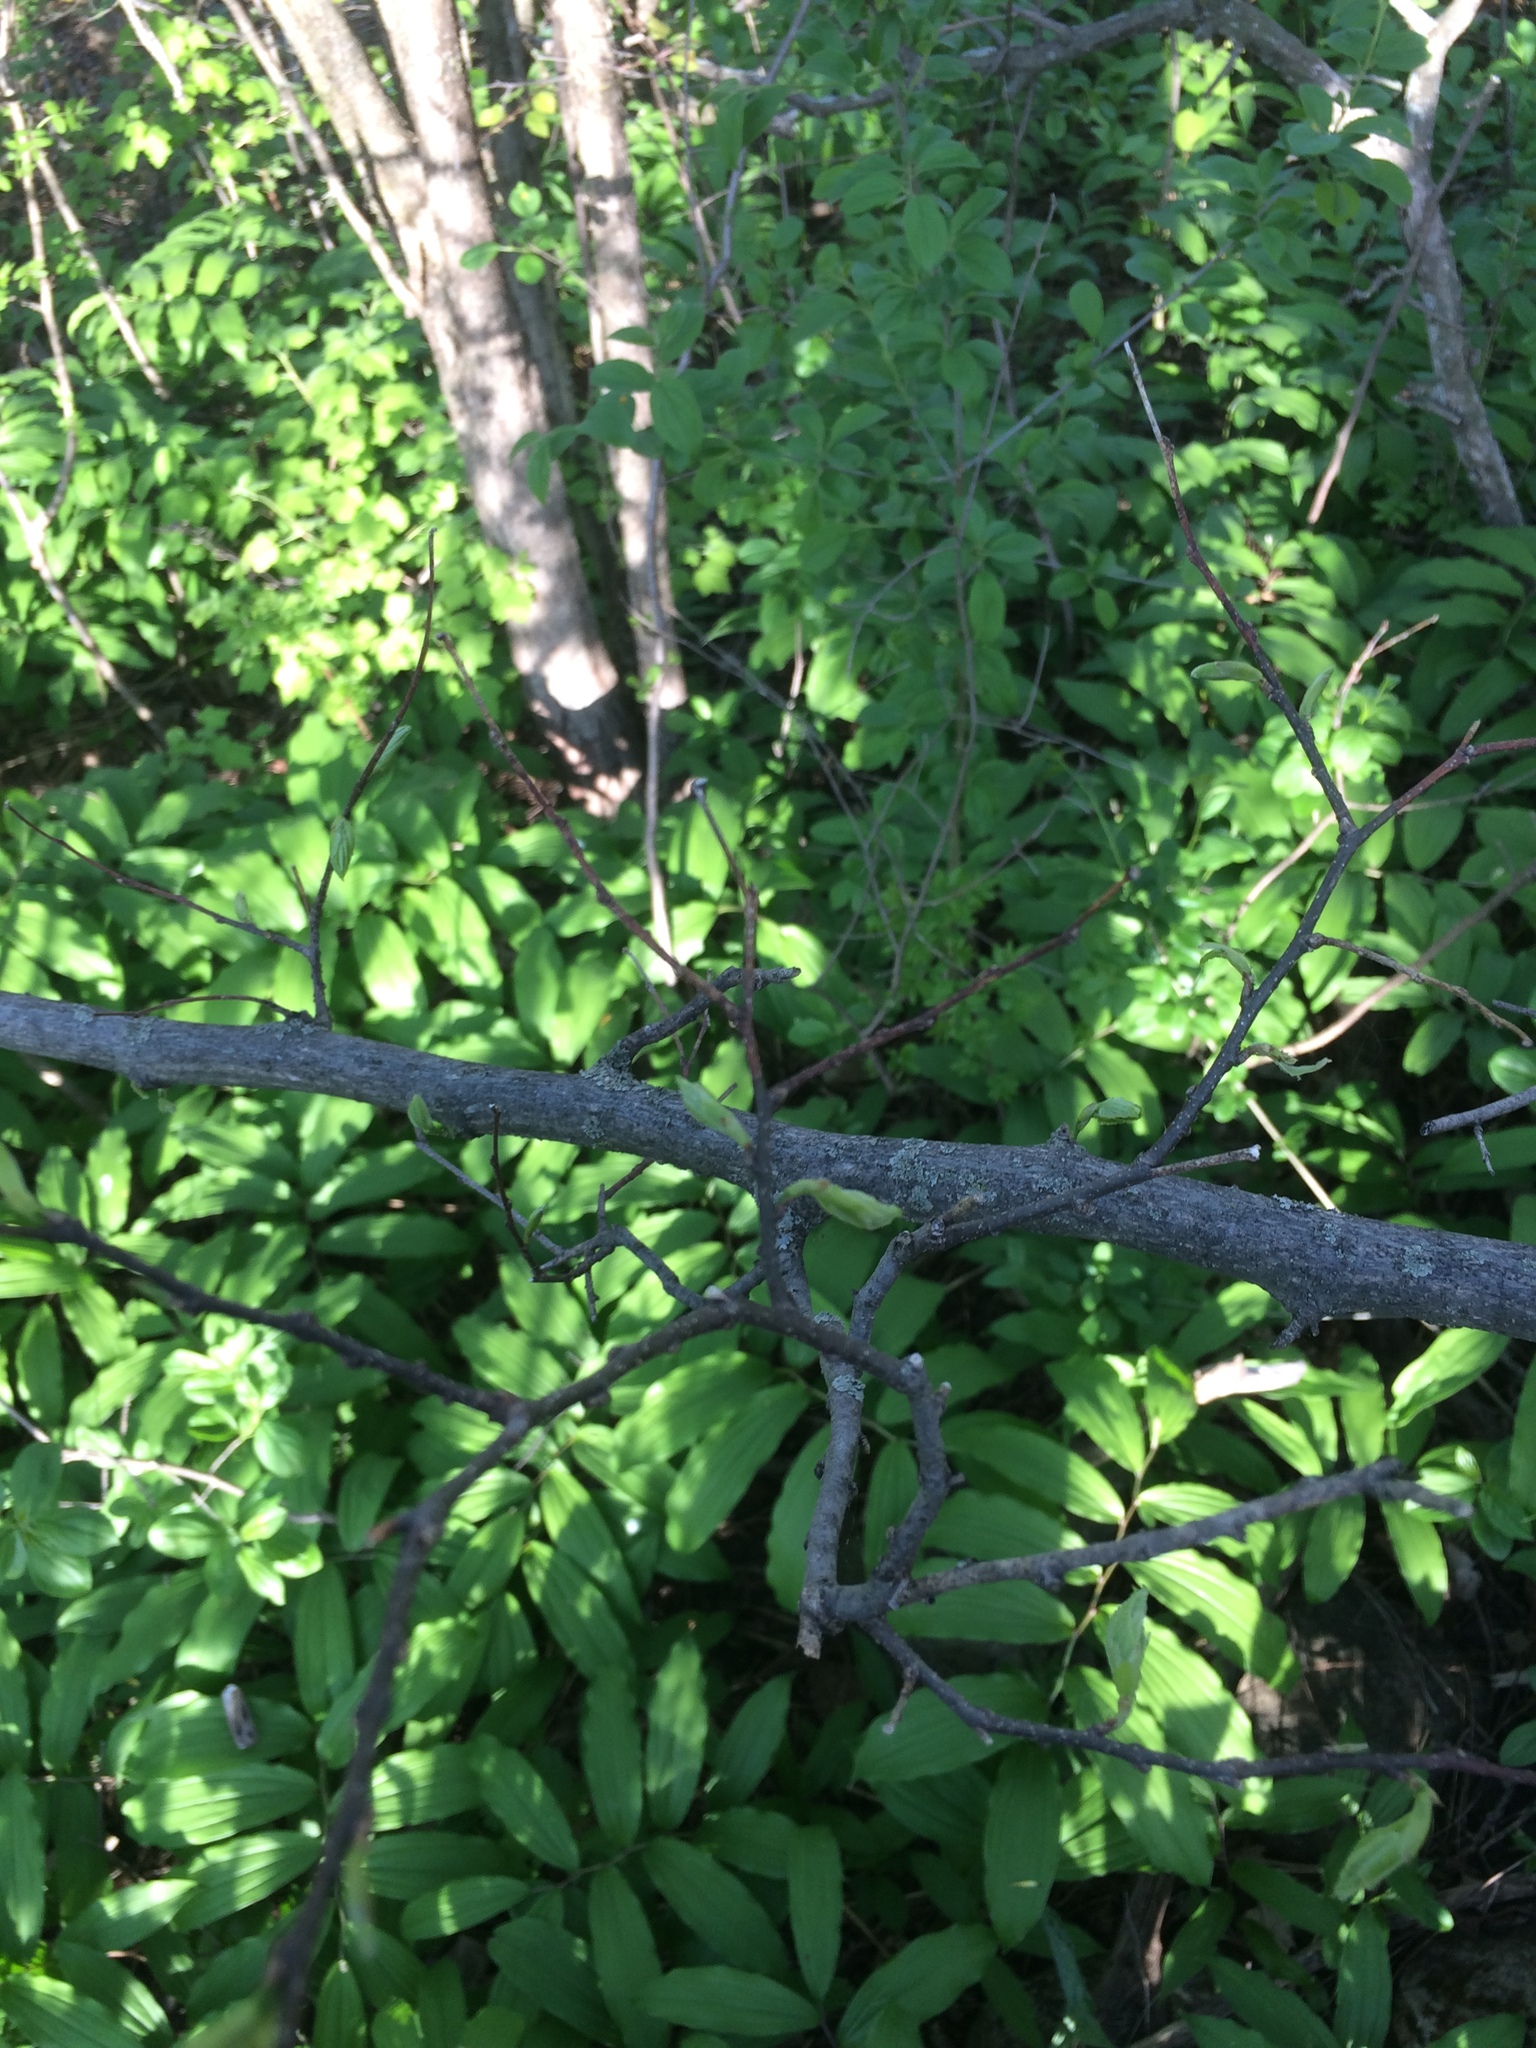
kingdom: Plantae
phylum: Tracheophyta
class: Magnoliopsida
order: Rosales
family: Cannabaceae
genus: Celtis
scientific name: Celtis occidentalis
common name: Common hackberry
